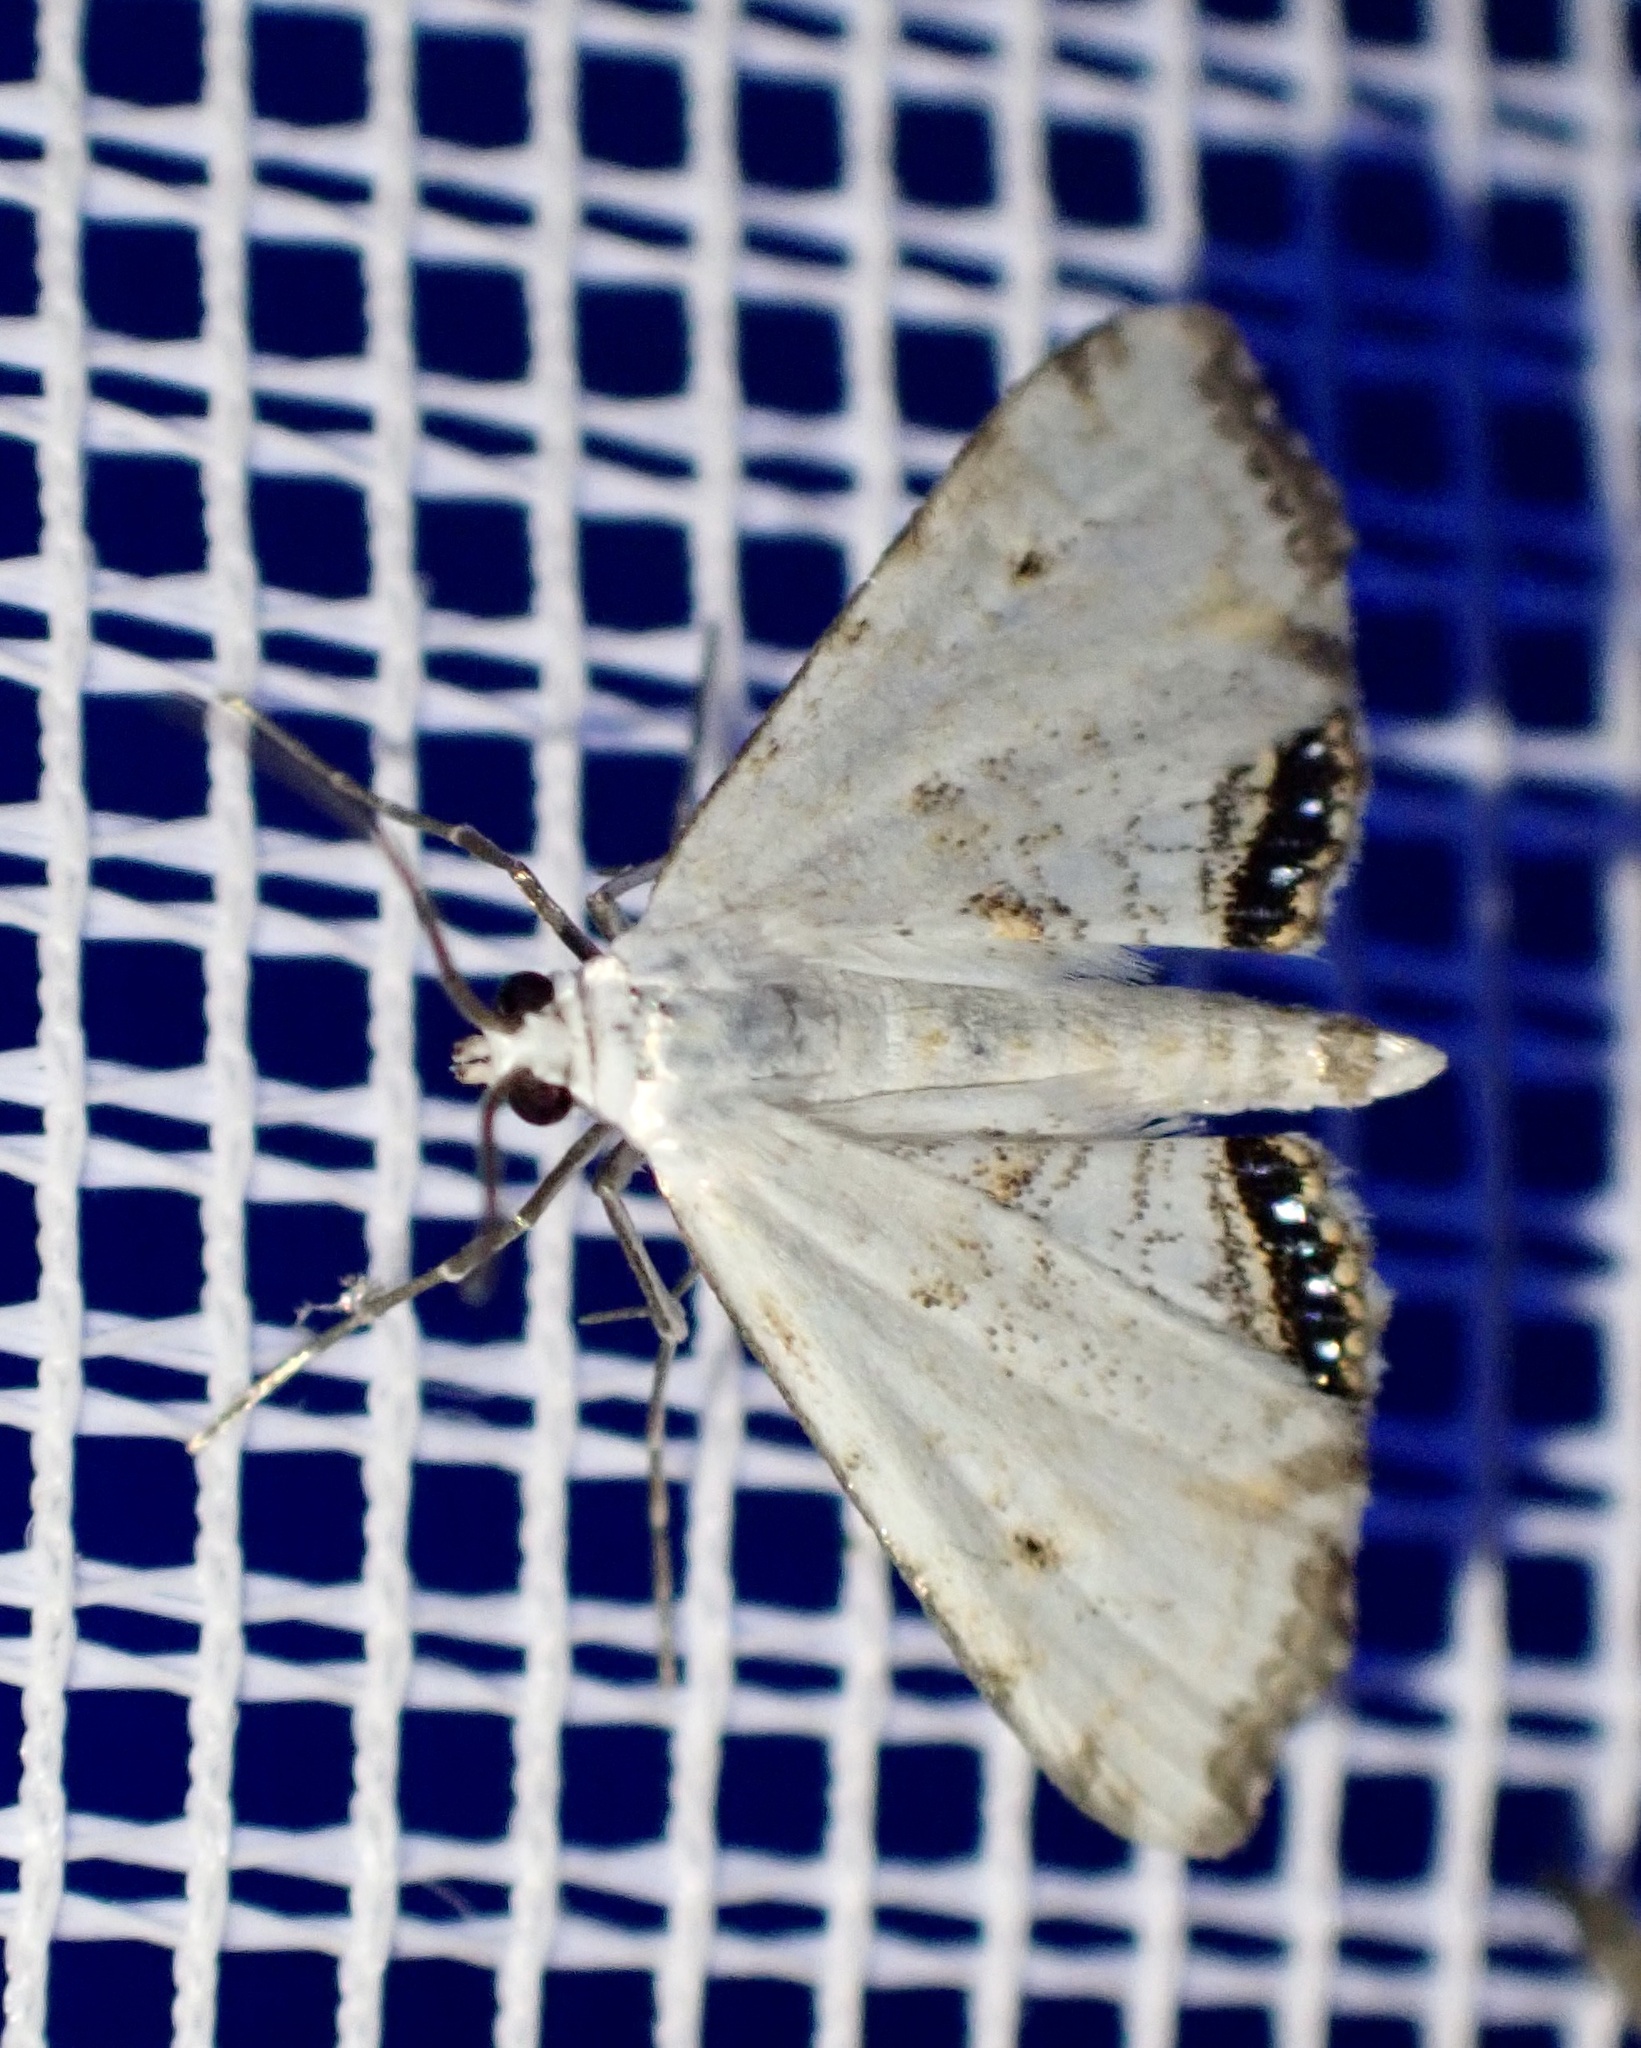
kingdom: Animalia
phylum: Arthropoda
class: Insecta
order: Lepidoptera
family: Crambidae
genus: Cataclysta
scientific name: Cataclysta lemnata
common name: Small china-mark
